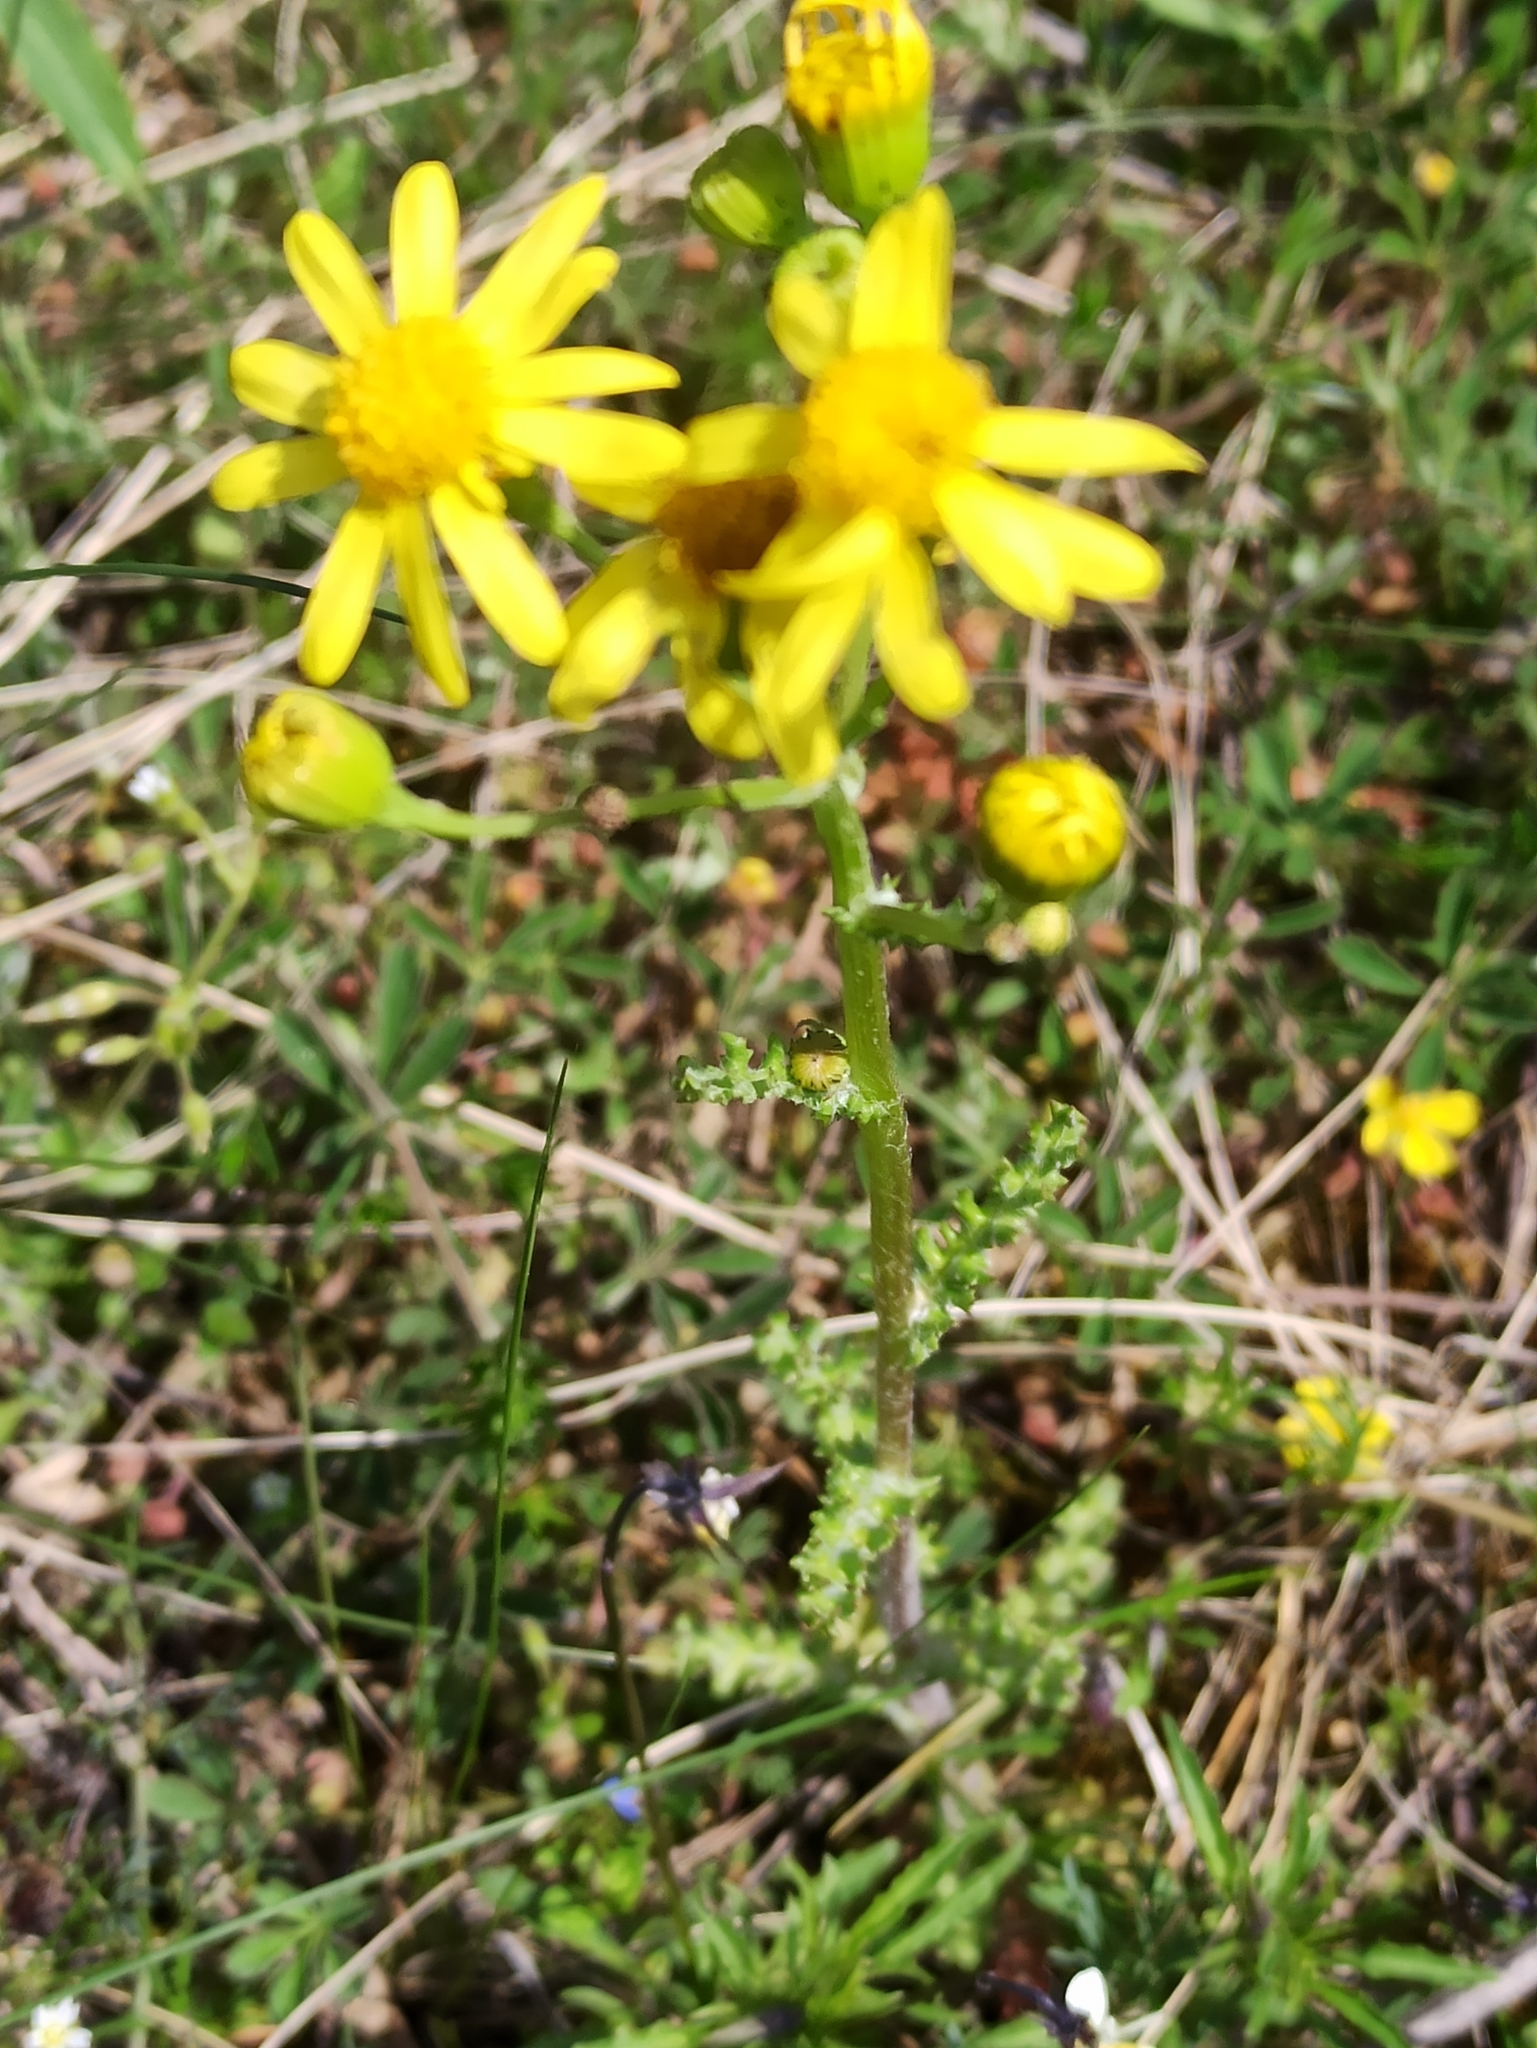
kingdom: Plantae
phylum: Tracheophyta
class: Magnoliopsida
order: Asterales
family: Asteraceae
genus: Senecio
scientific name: Senecio vernalis
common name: Eastern groundsel
